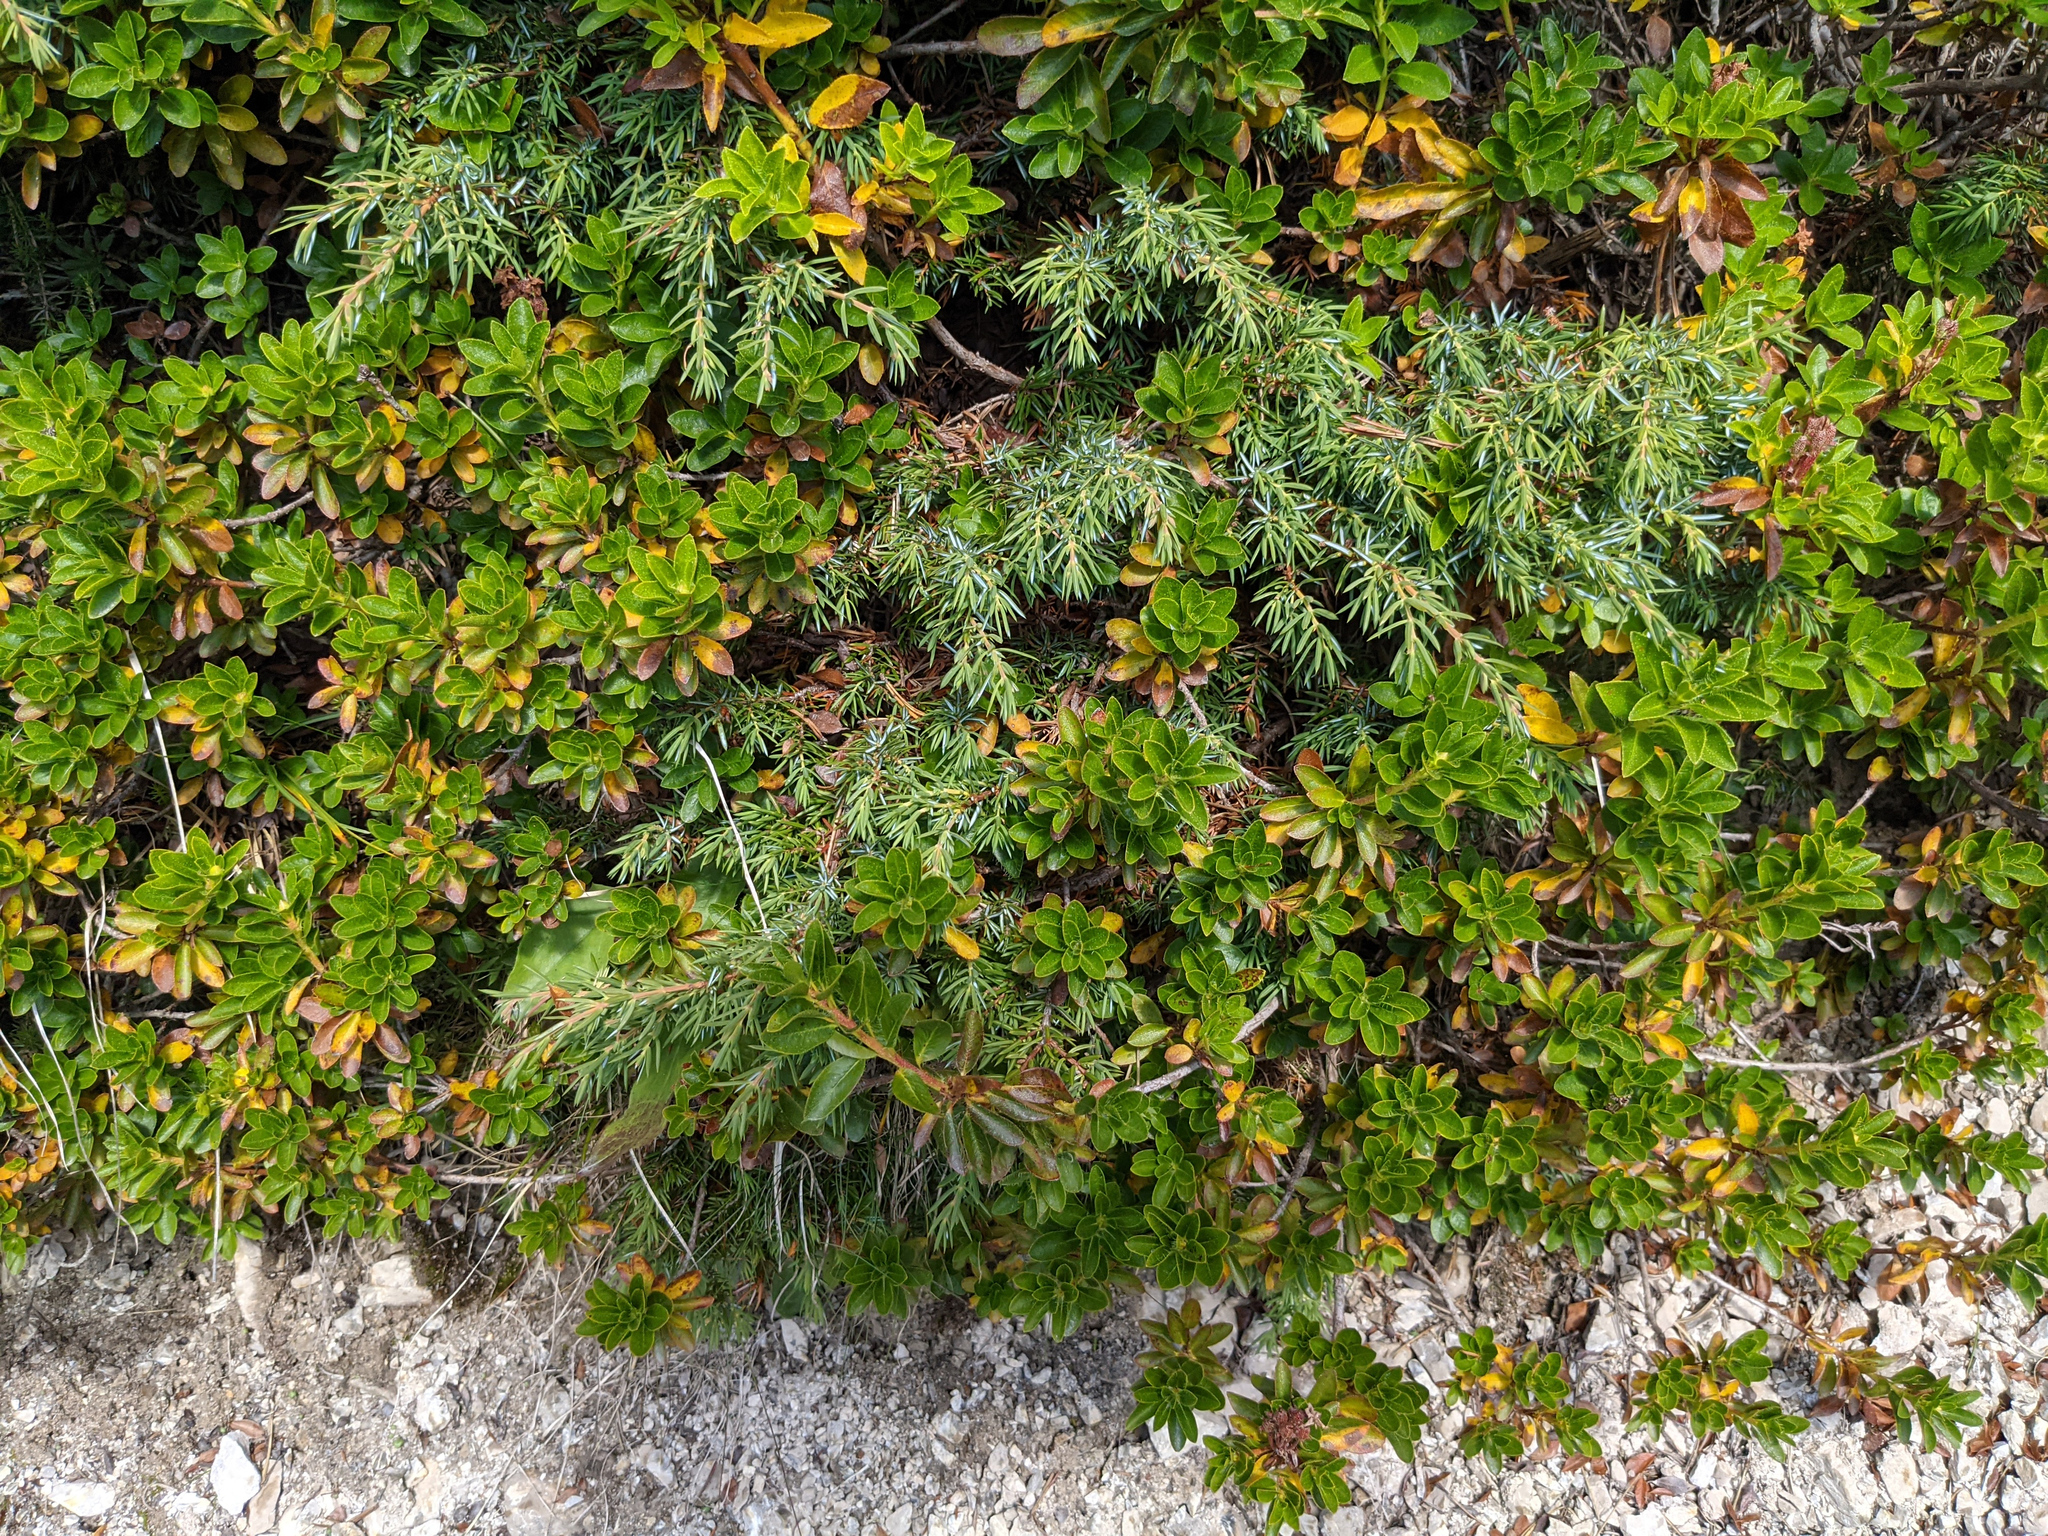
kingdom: Plantae
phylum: Tracheophyta
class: Pinopsida
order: Pinales
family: Cupressaceae
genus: Juniperus
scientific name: Juniperus communis
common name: Common juniper
